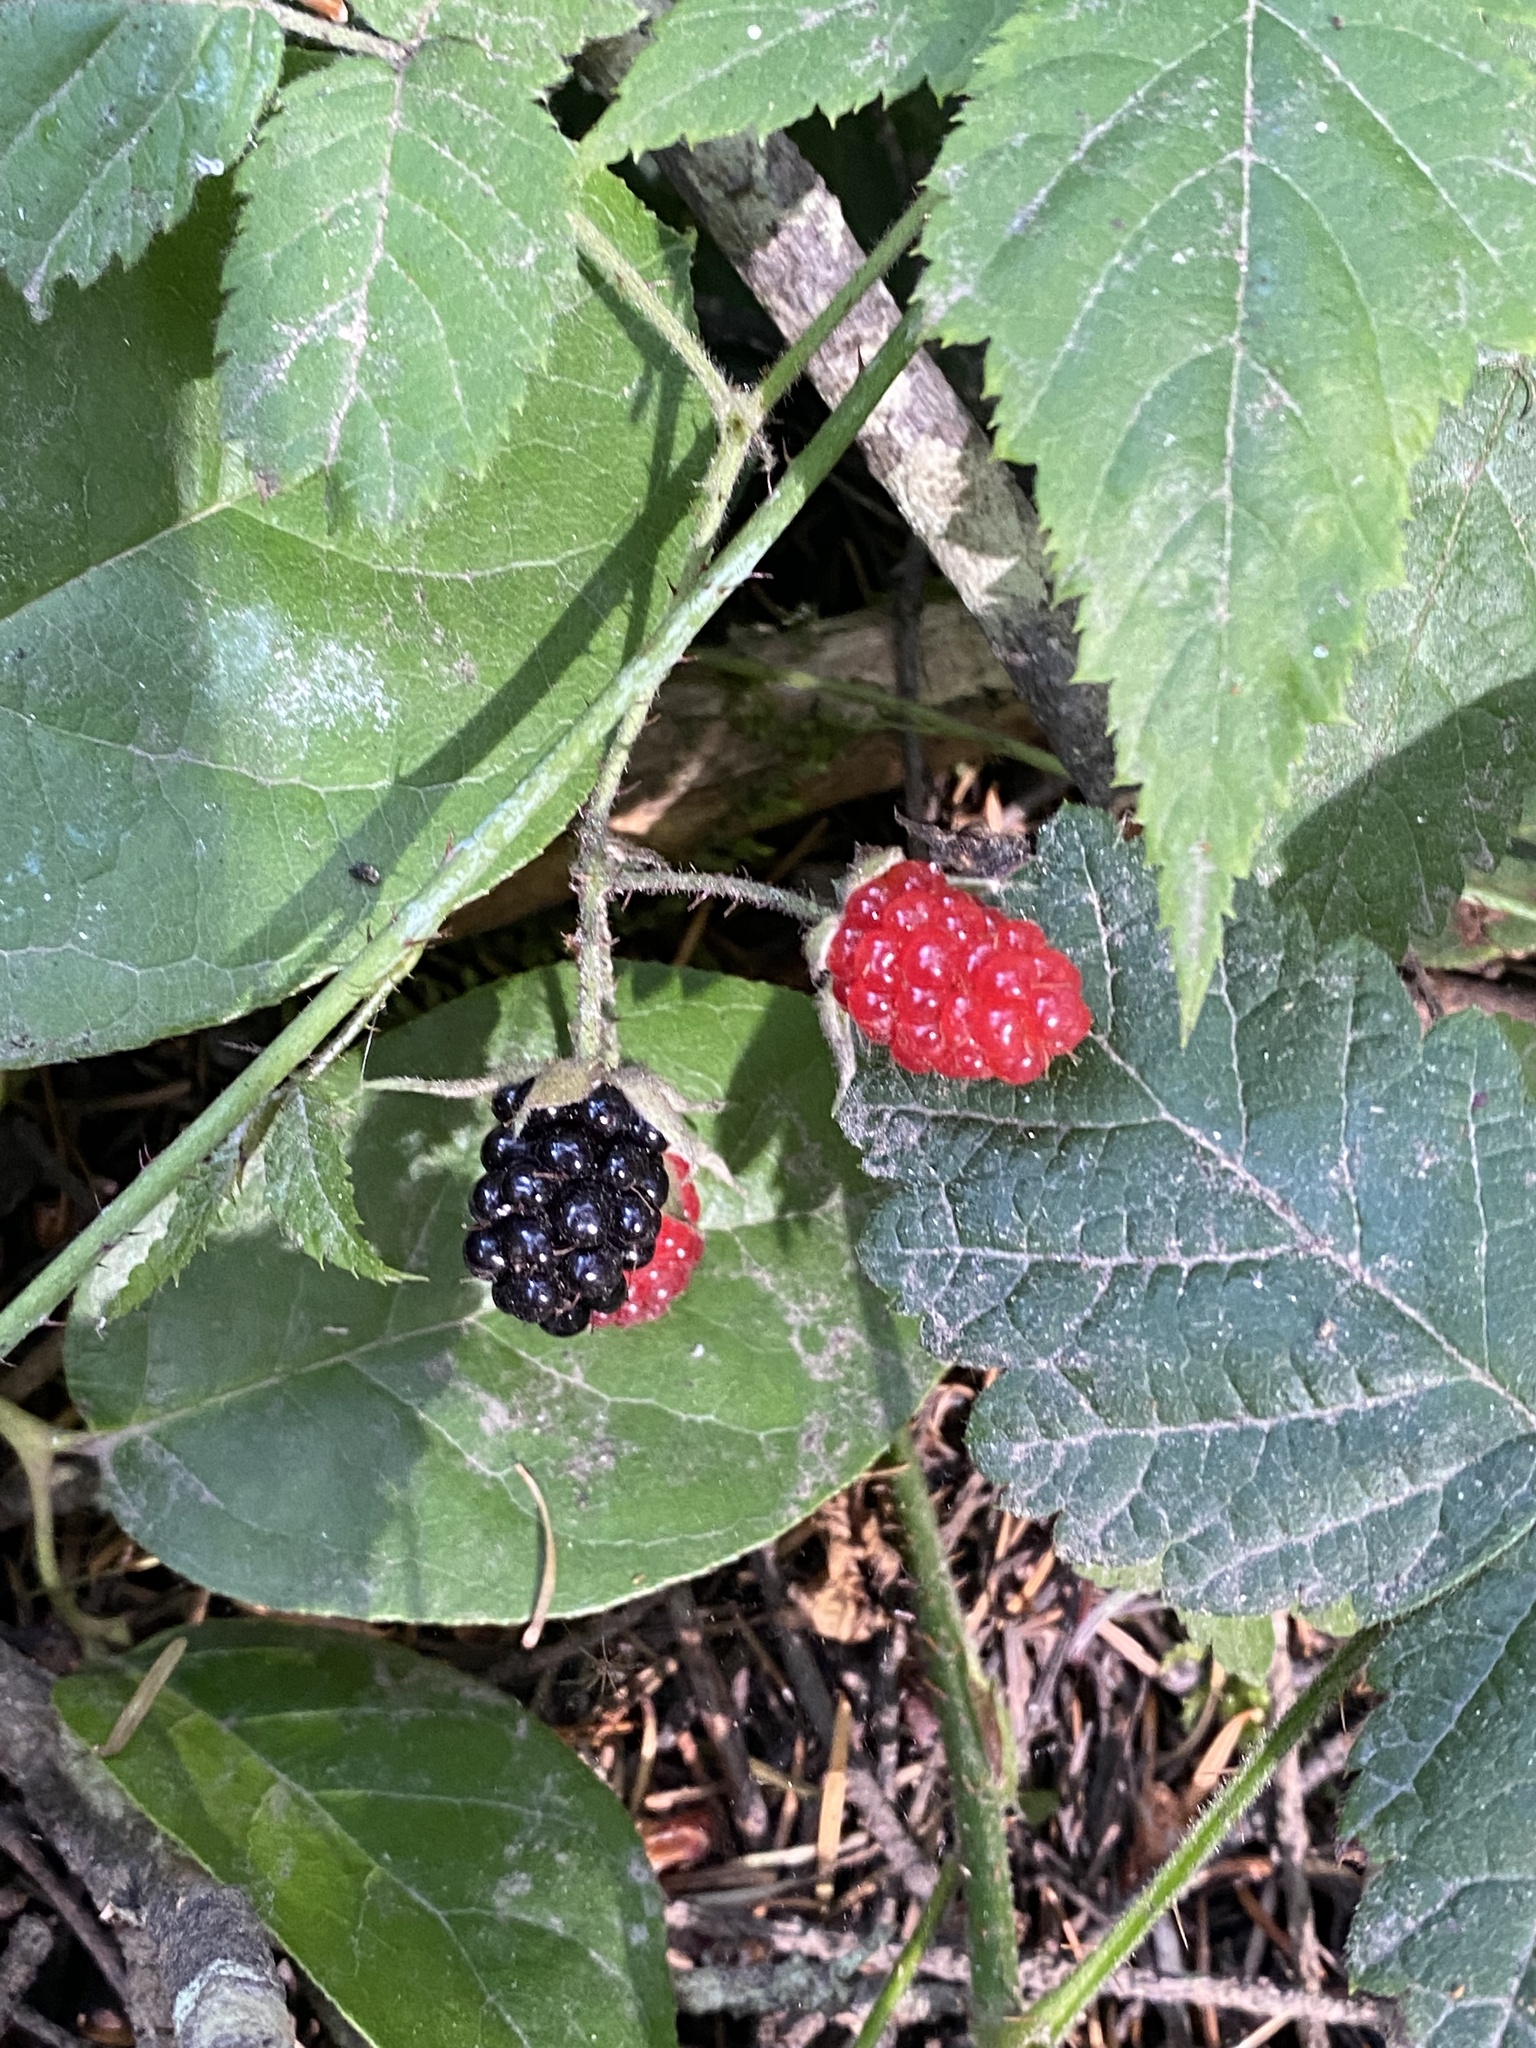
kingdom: Plantae
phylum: Tracheophyta
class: Magnoliopsida
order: Rosales
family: Rosaceae
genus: Rubus
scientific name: Rubus ursinus
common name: Pacific blackberry
